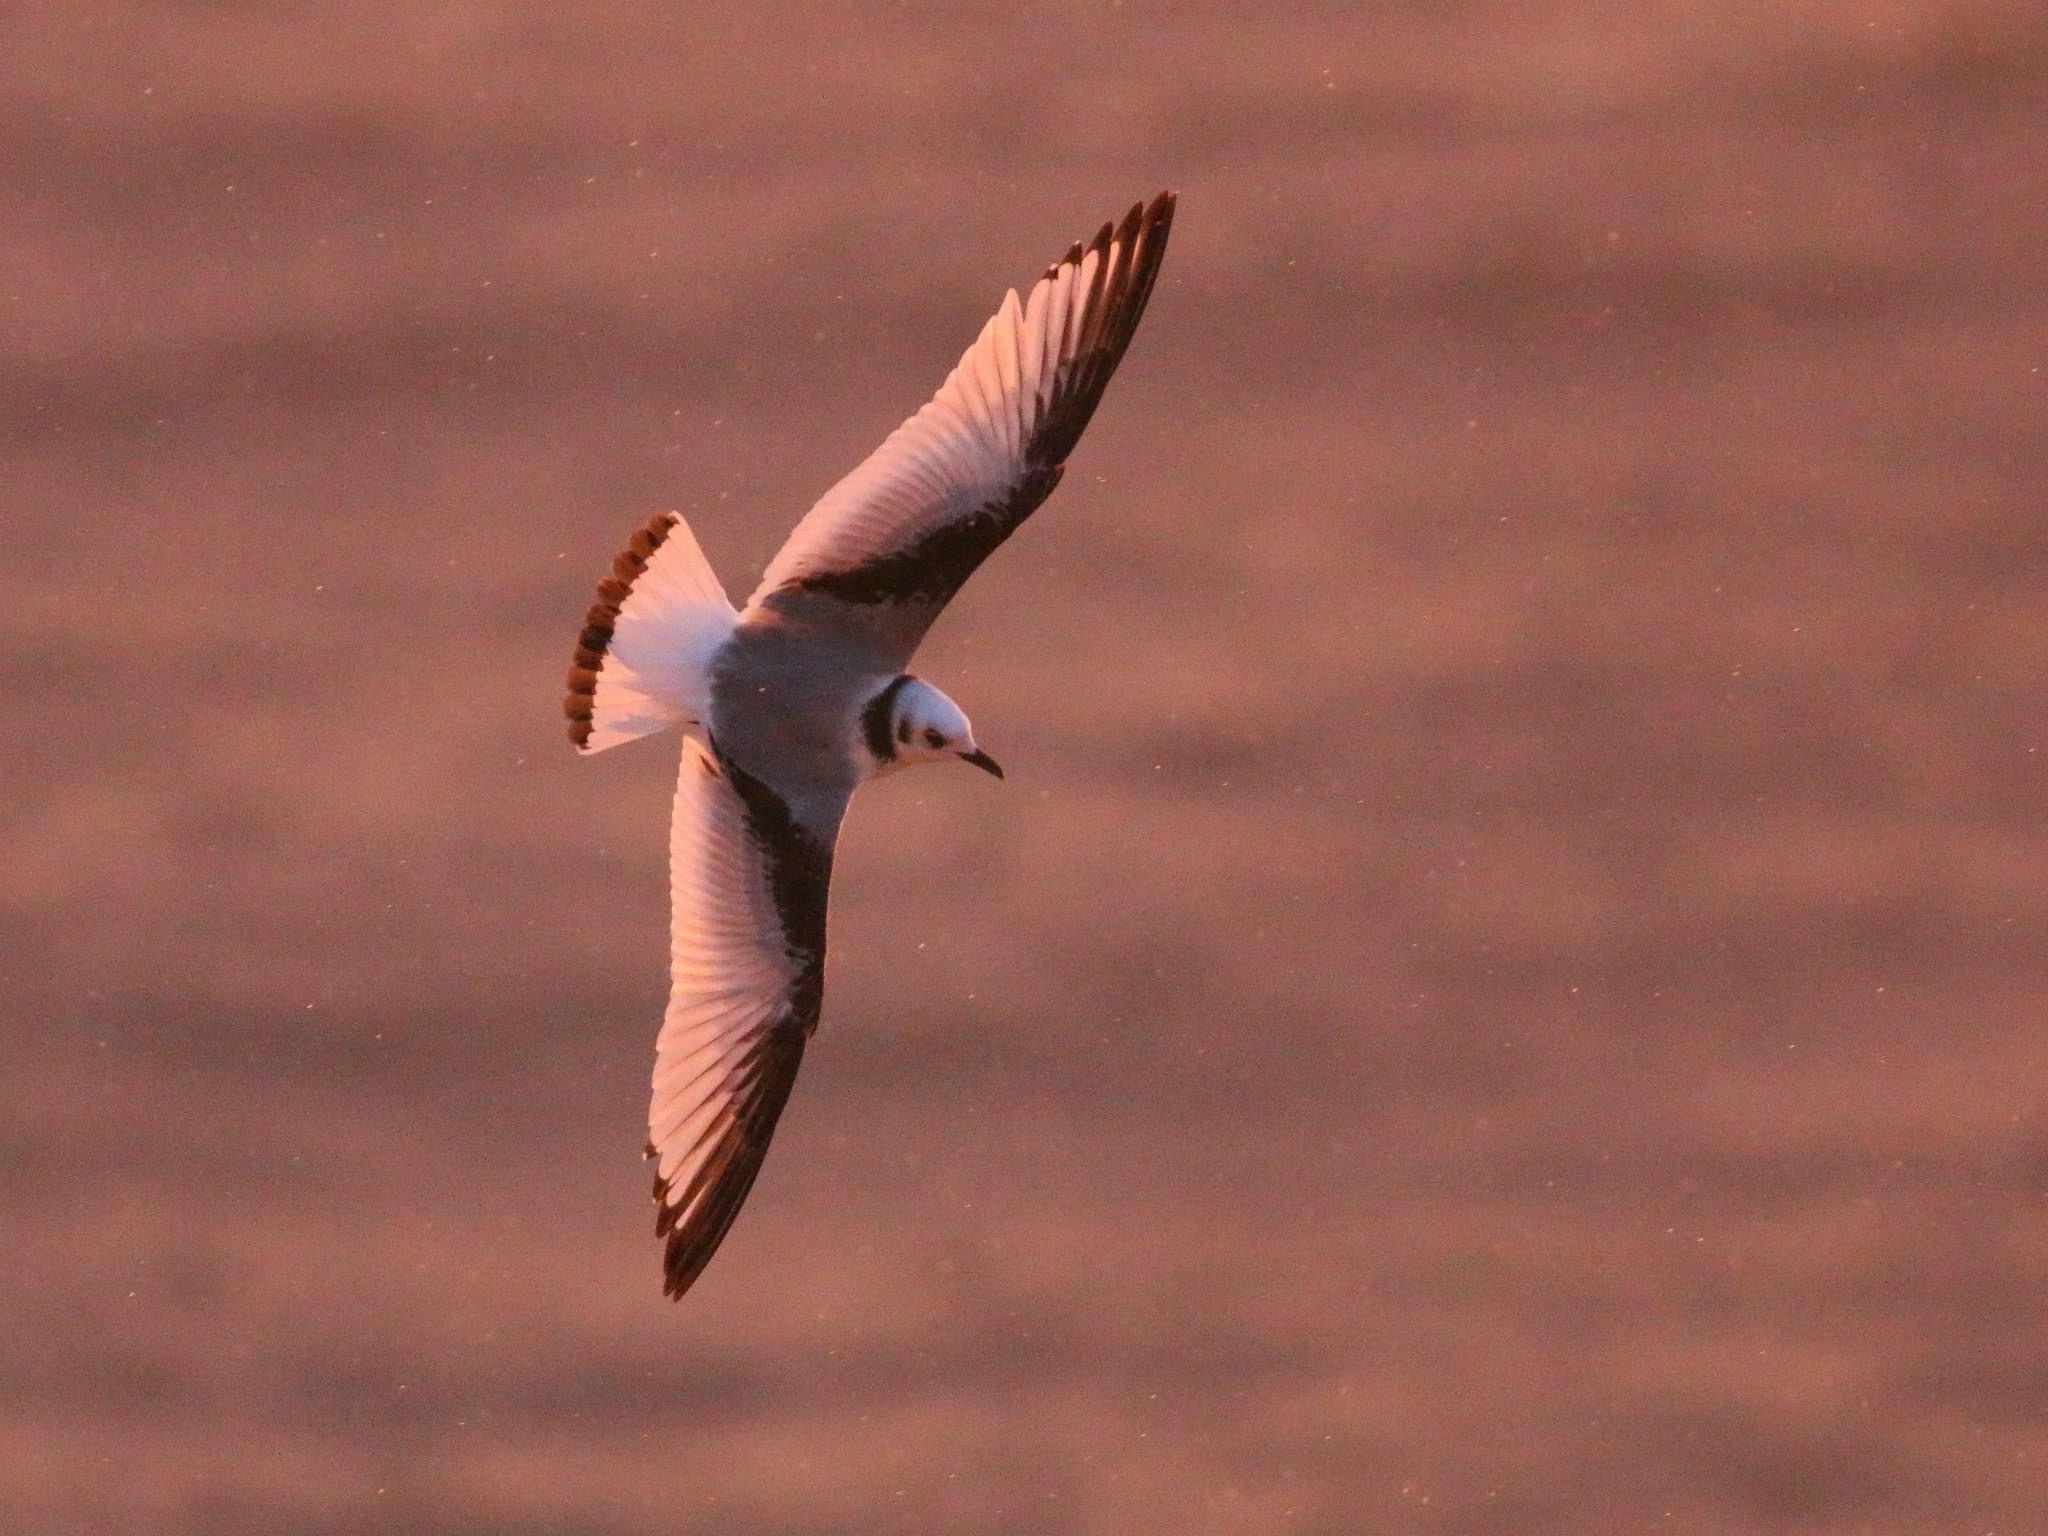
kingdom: Animalia
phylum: Chordata
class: Aves
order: Charadriiformes
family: Laridae
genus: Rissa
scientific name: Rissa tridactyla
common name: Black-legged kittiwake
